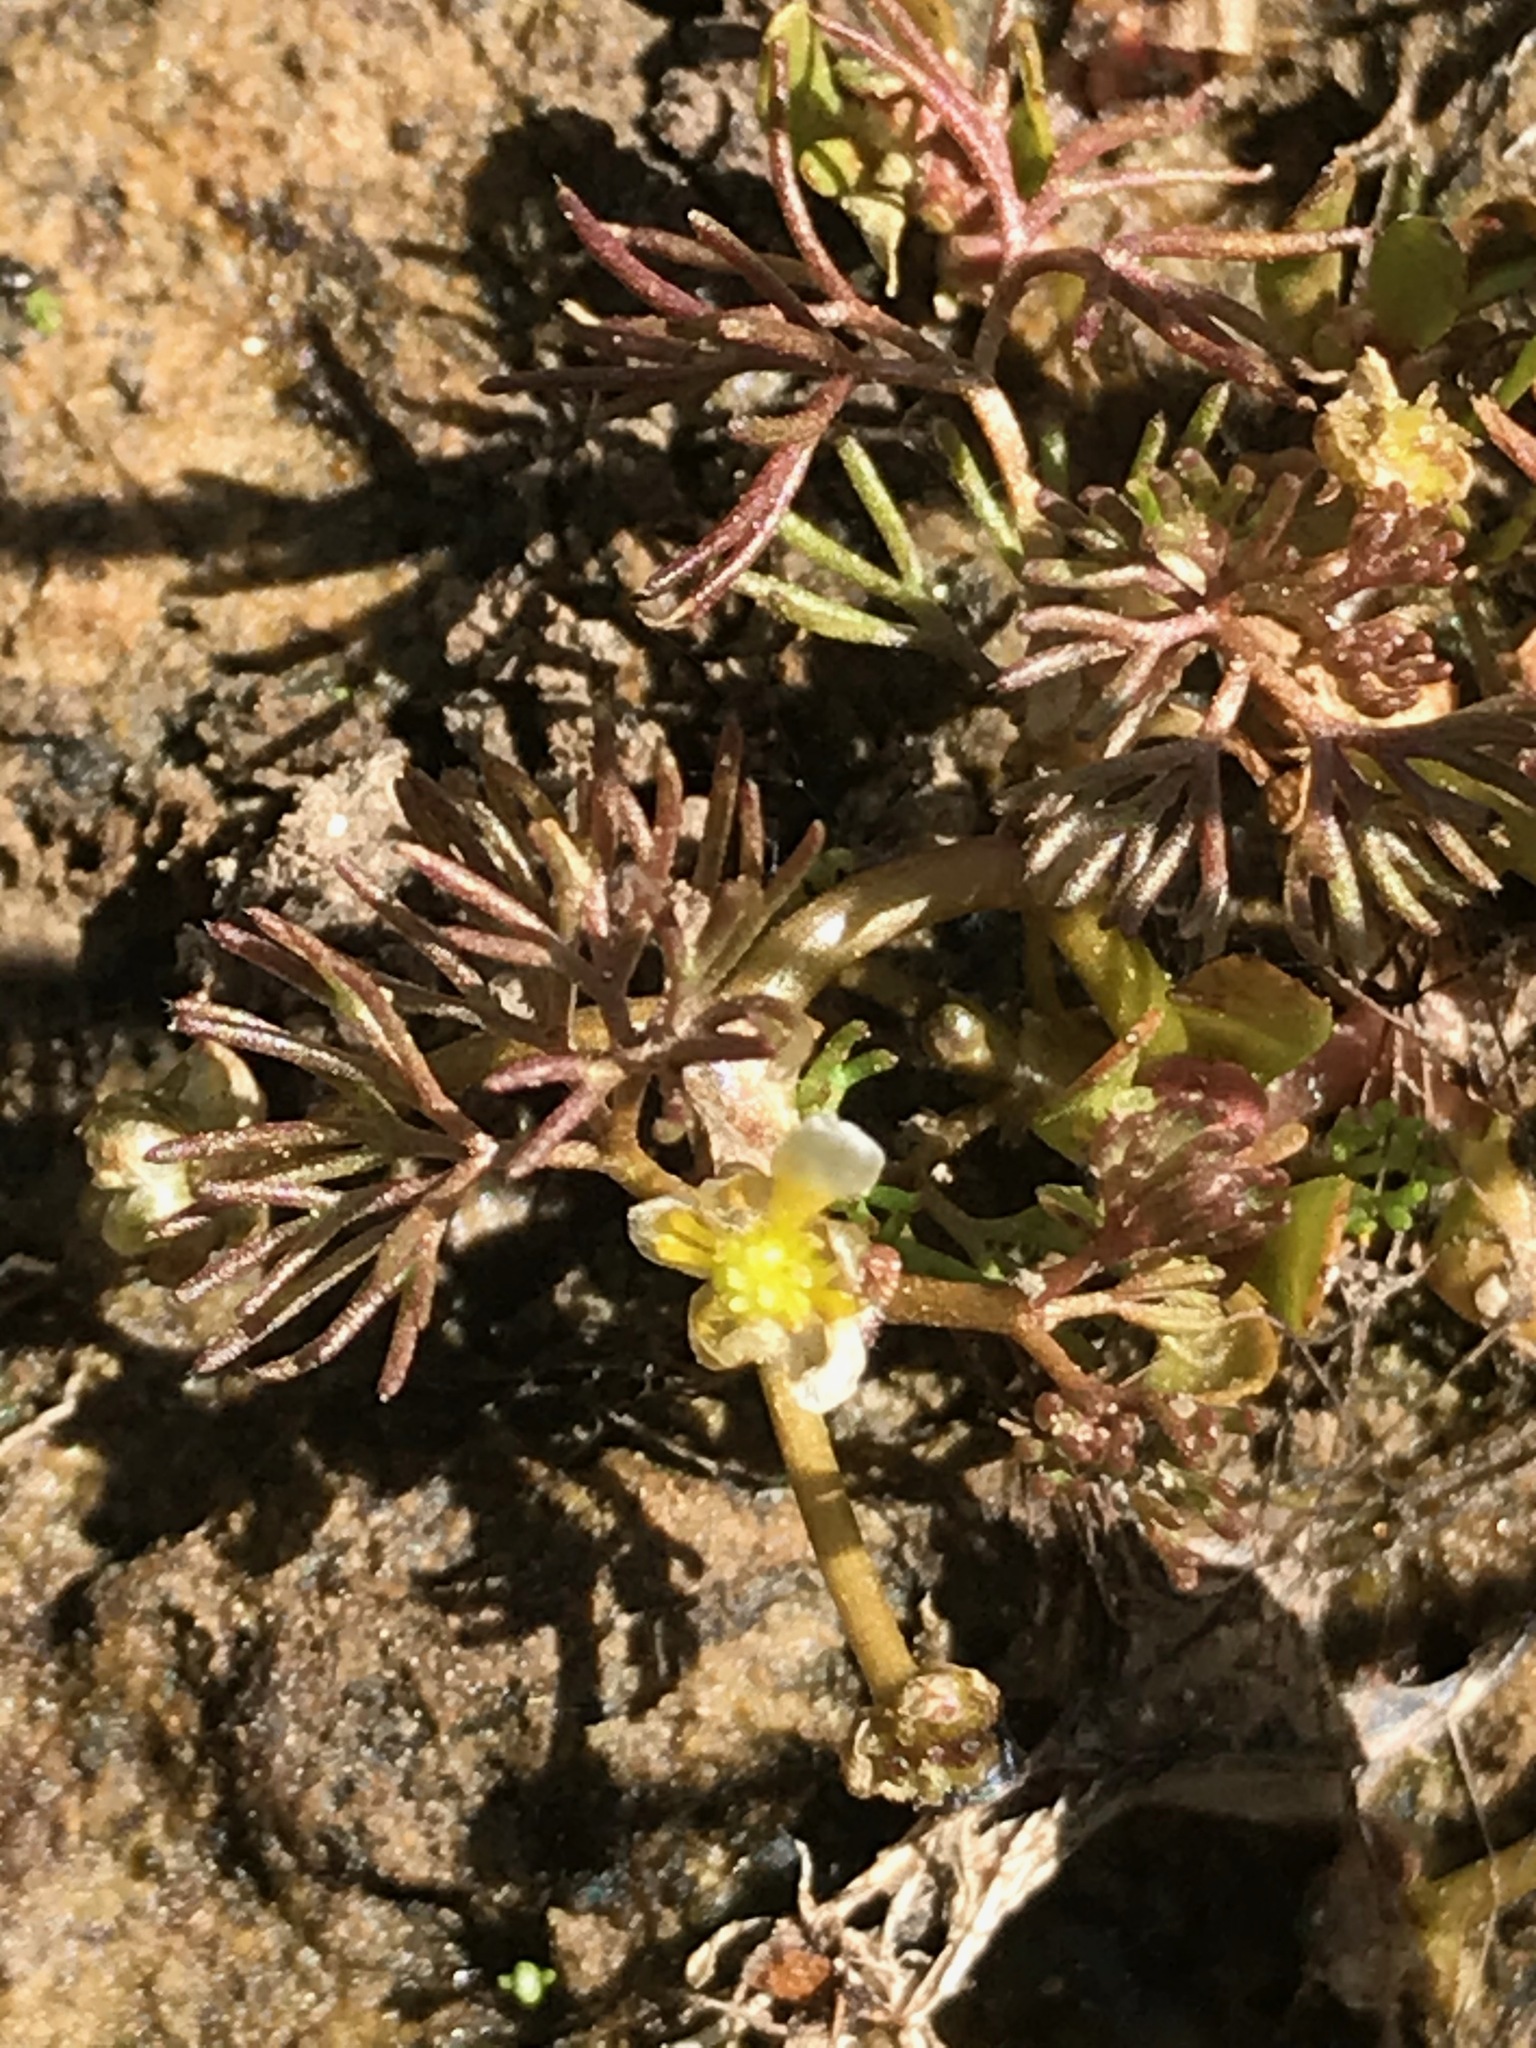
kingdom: Plantae
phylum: Tracheophyta
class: Magnoliopsida
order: Ranunculales
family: Ranunculaceae
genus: Ranunculus
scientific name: Ranunculus trichophyllus
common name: Thread-leaved water-crowfoot
